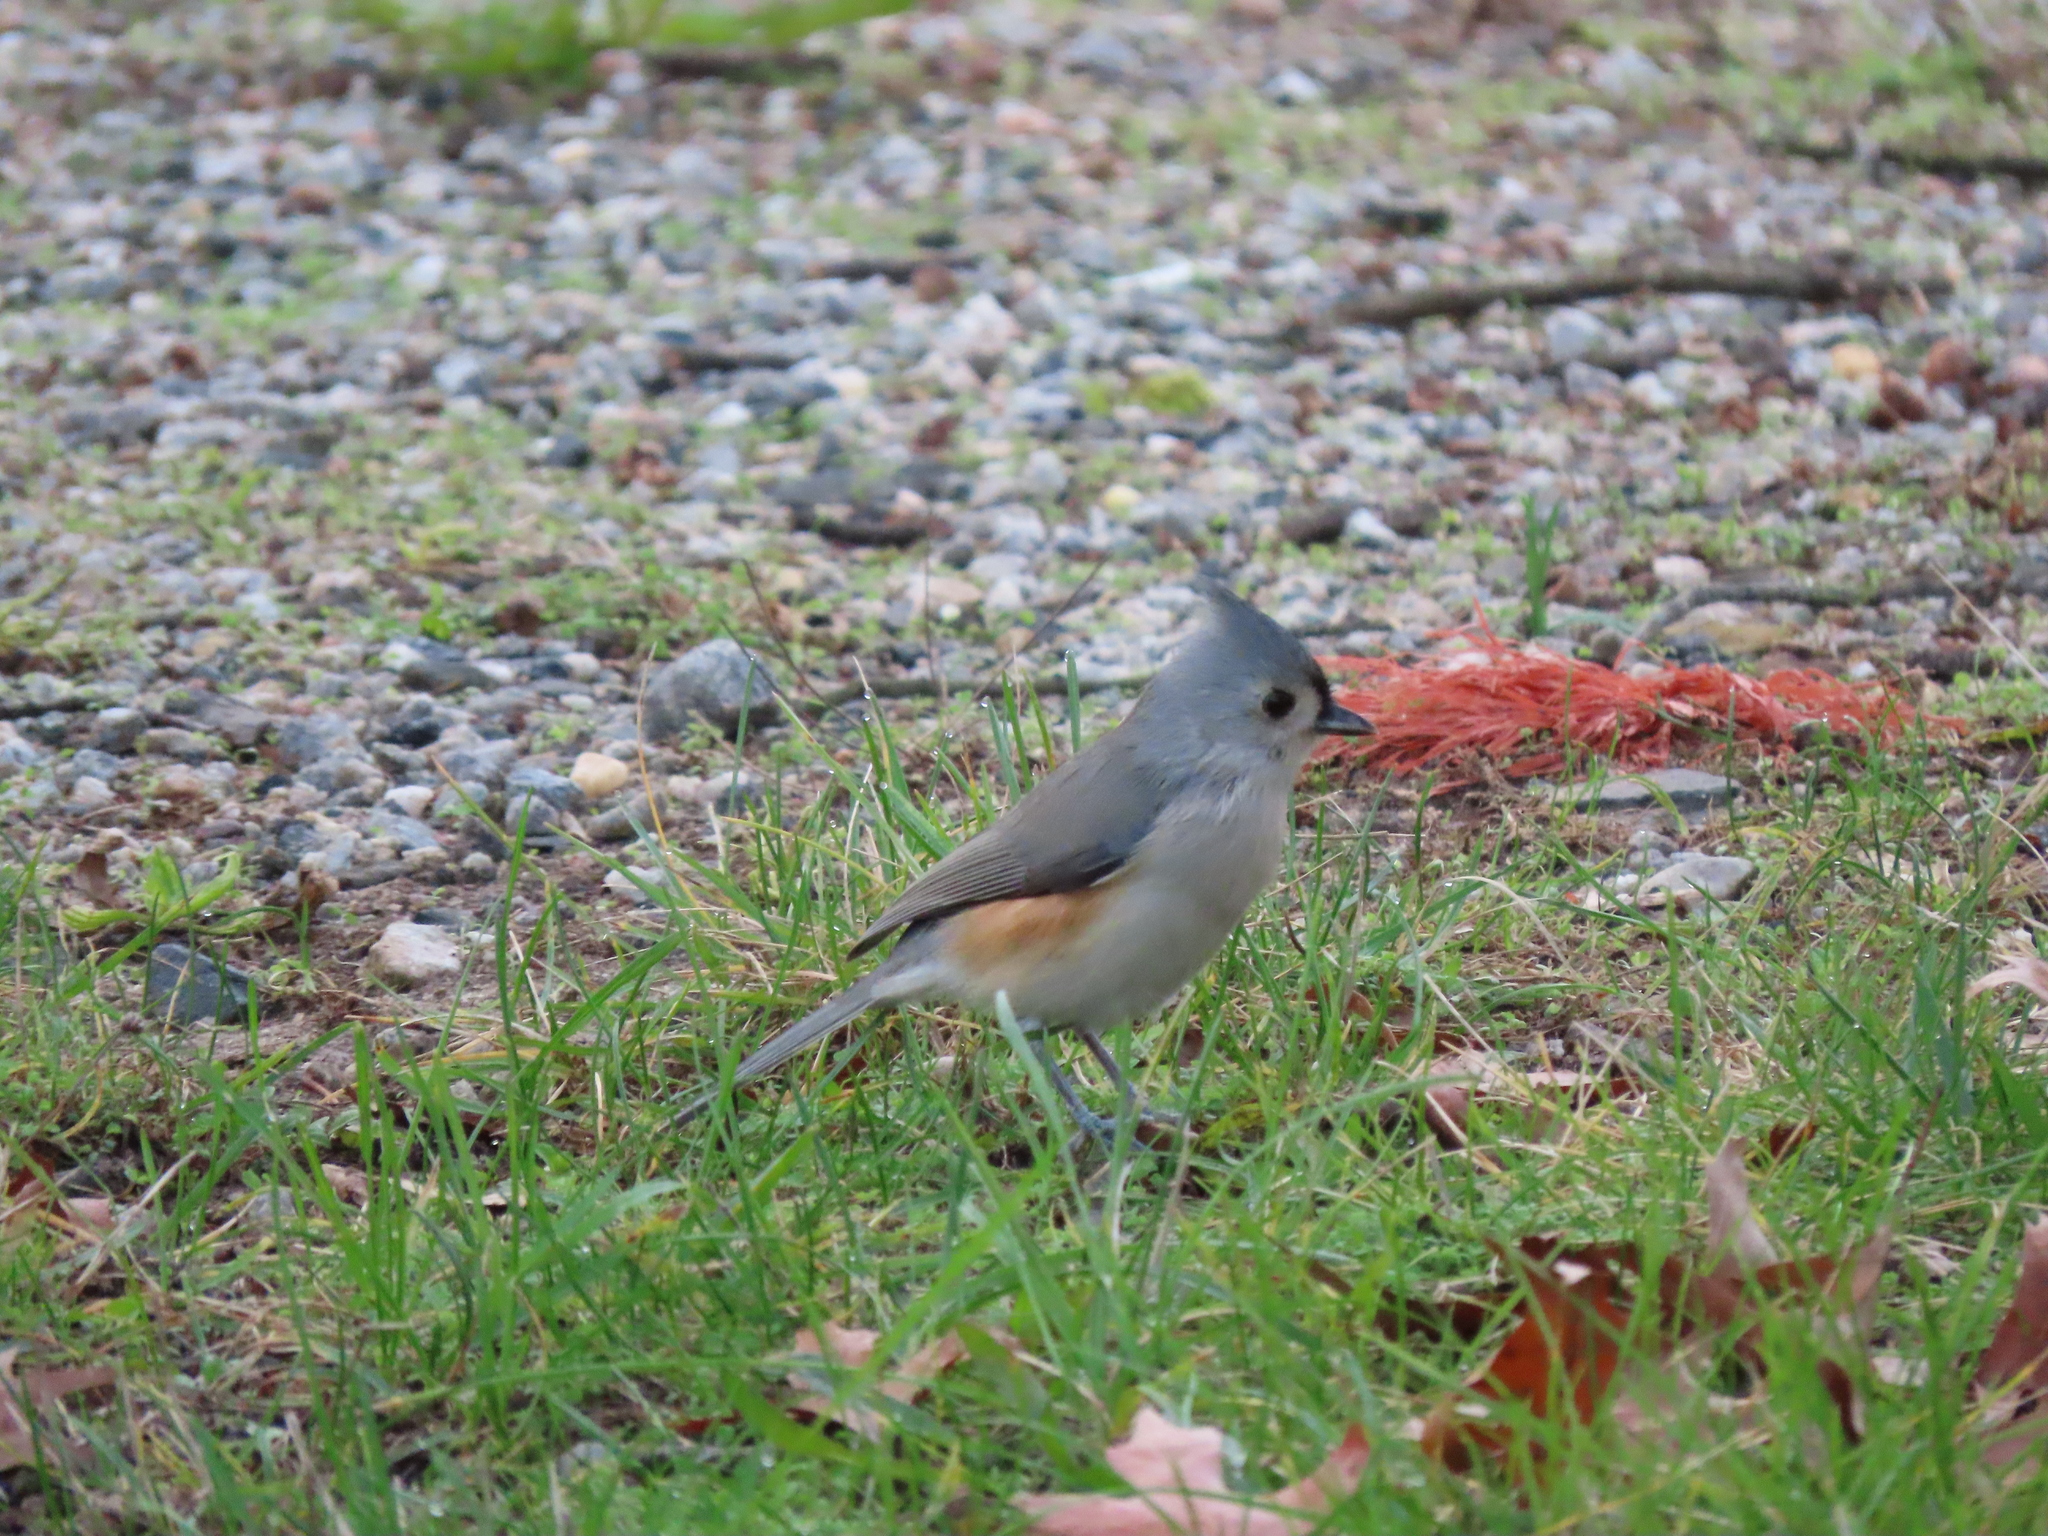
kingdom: Animalia
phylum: Chordata
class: Aves
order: Passeriformes
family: Paridae
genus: Baeolophus
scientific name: Baeolophus bicolor
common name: Tufted titmouse
